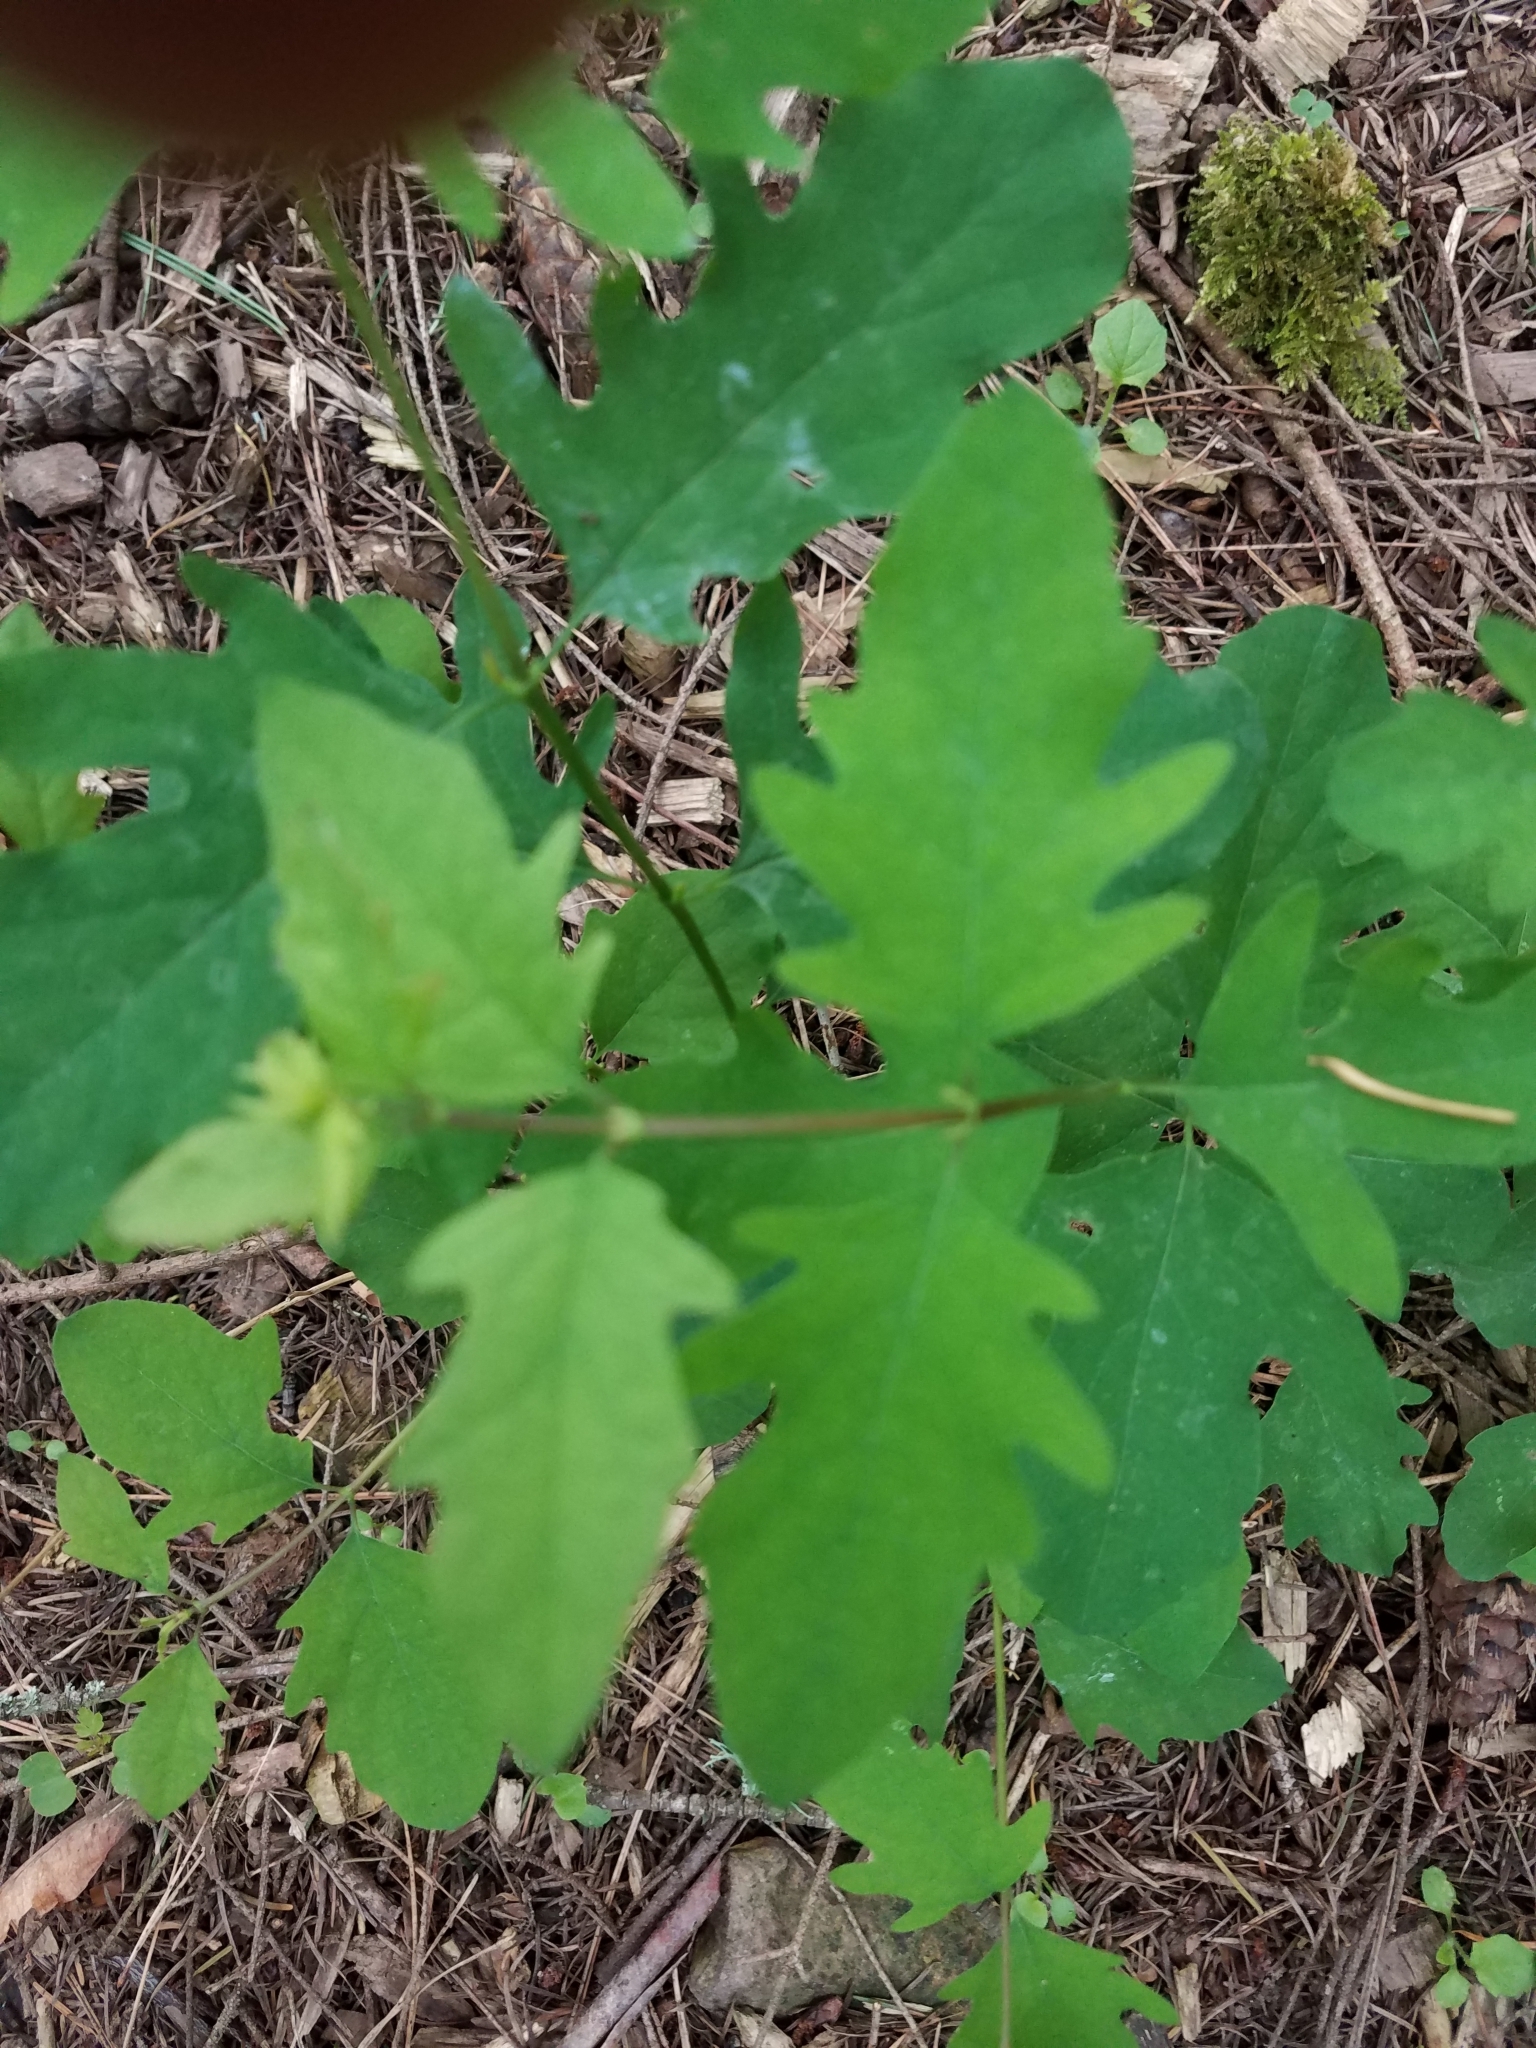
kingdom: Plantae
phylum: Tracheophyta
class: Magnoliopsida
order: Dipsacales
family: Caprifoliaceae
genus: Symphoricarpos
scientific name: Symphoricarpos albus
